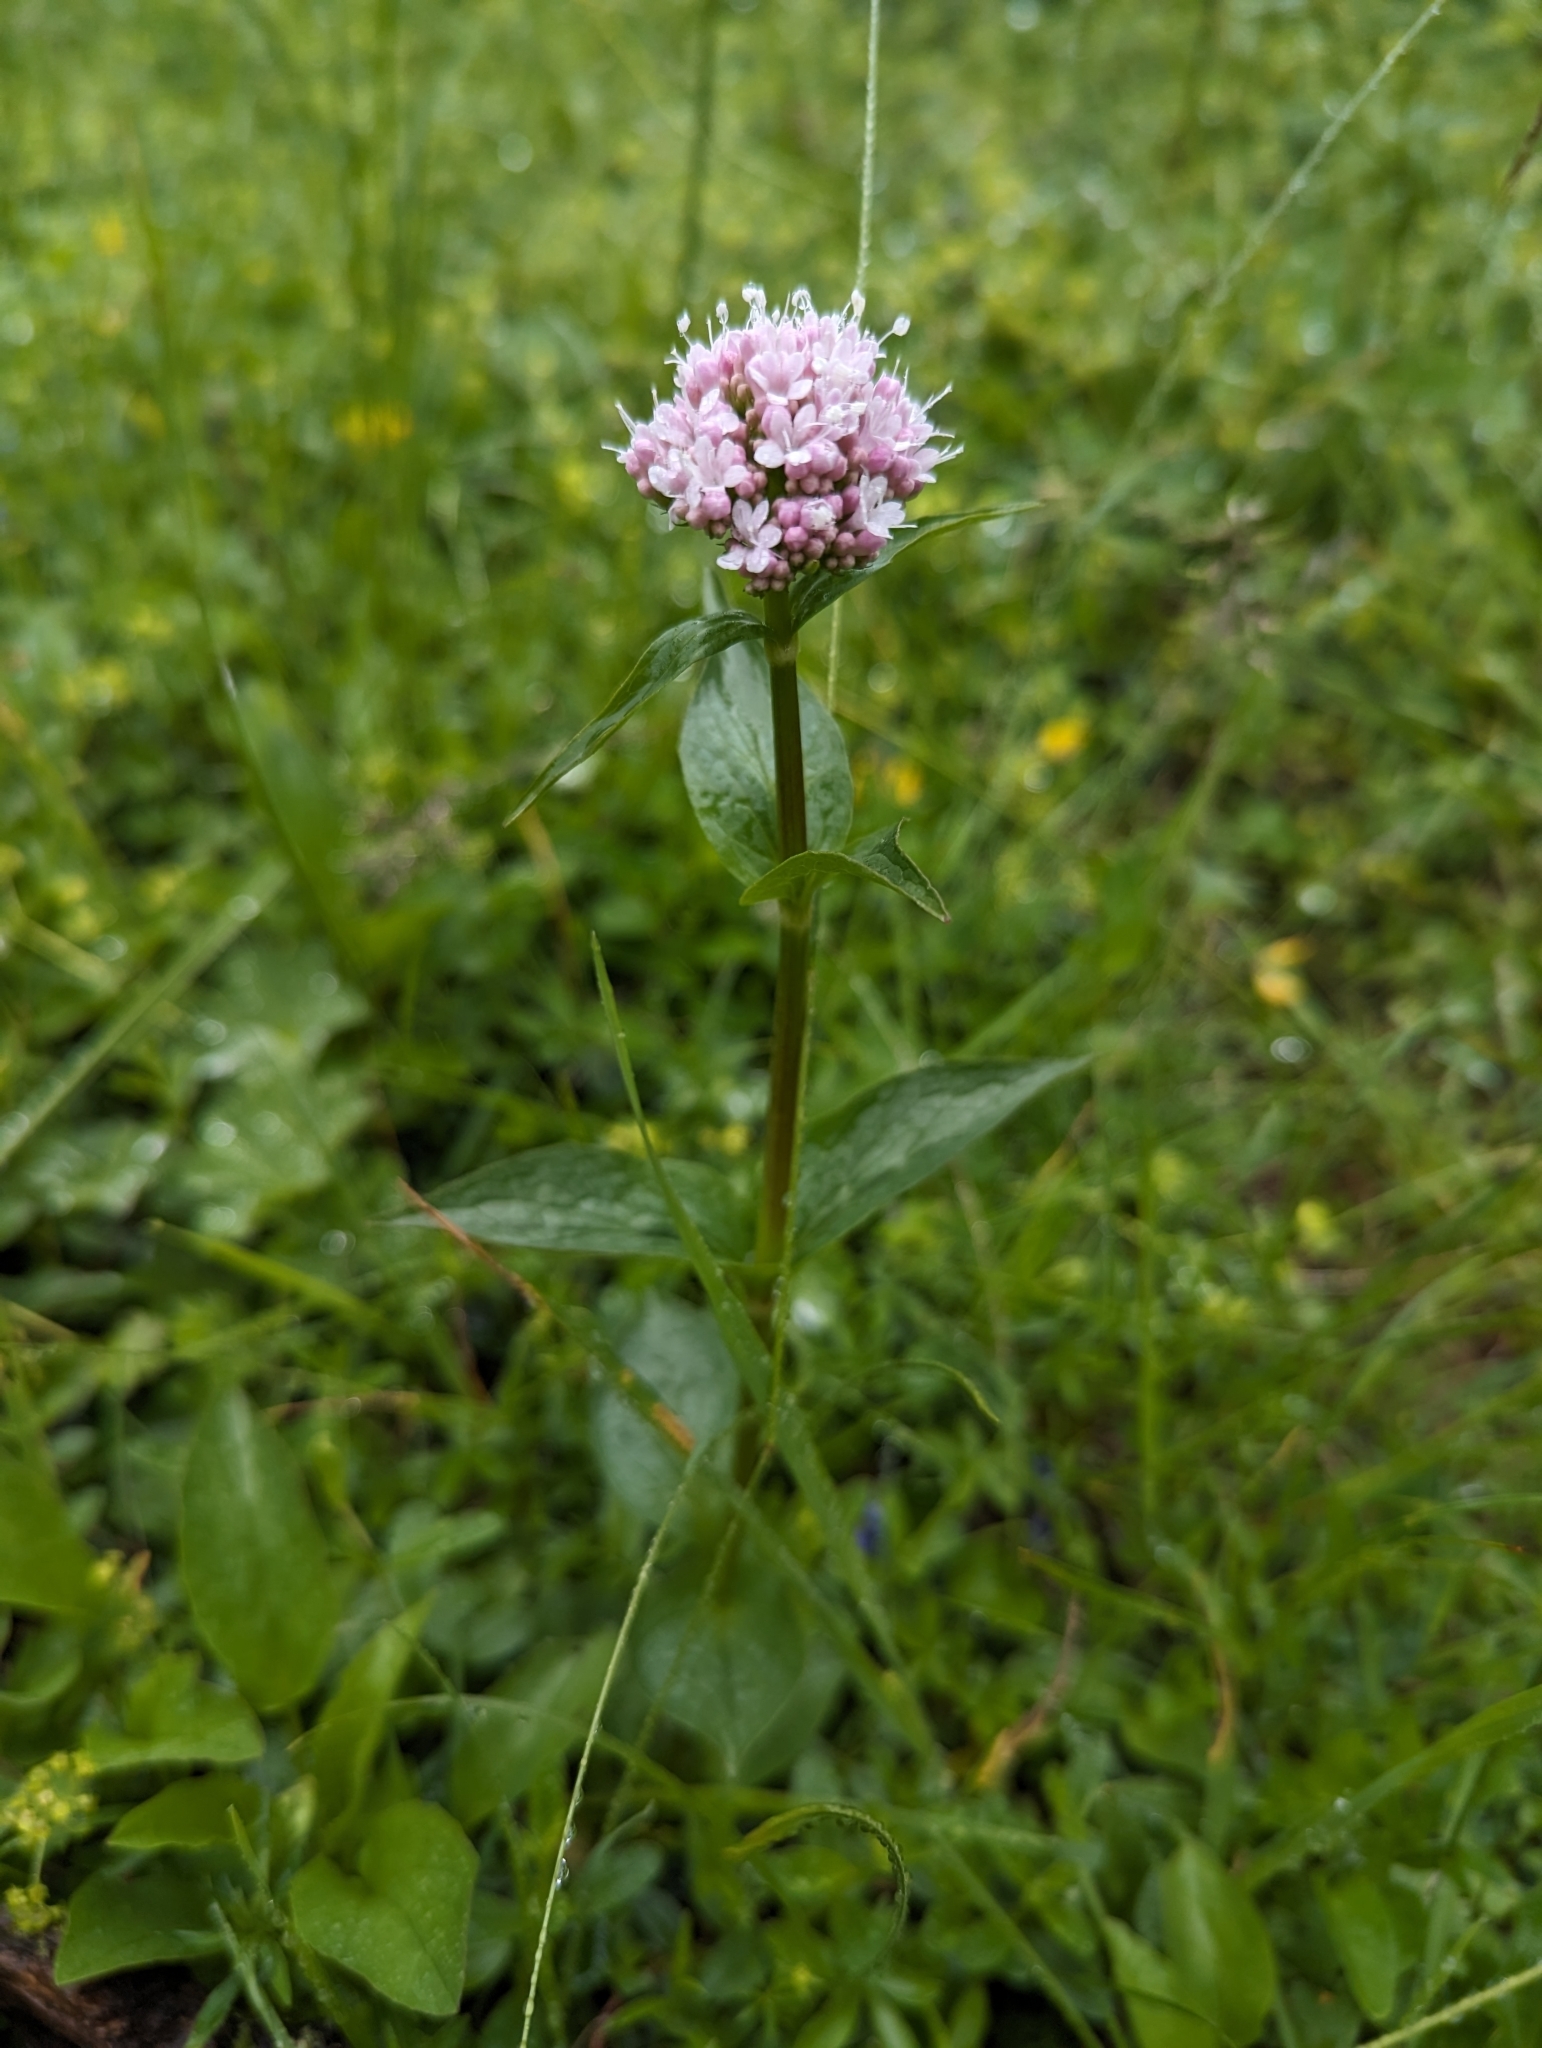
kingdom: Plantae
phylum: Tracheophyta
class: Magnoliopsida
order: Dipsacales
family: Caprifoliaceae
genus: Valeriana
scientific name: Valeriana montana
